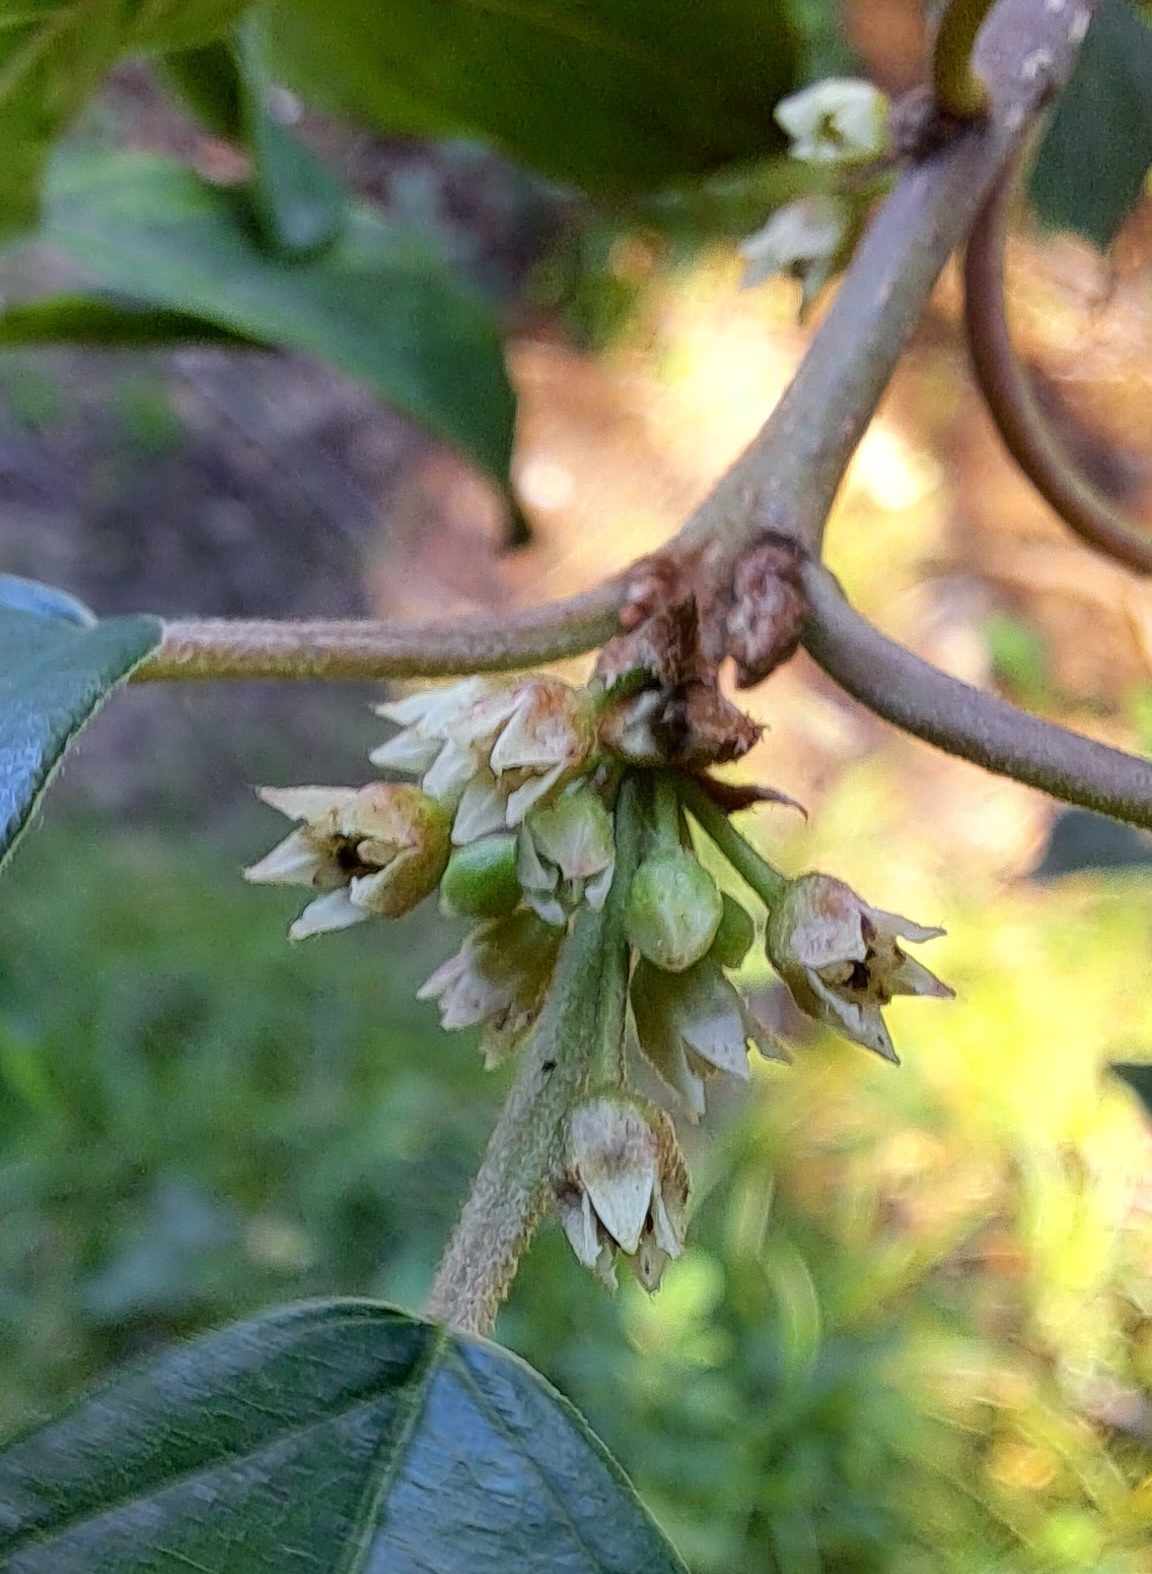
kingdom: Plantae
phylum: Tracheophyta
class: Magnoliopsida
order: Rosales
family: Rhamnaceae
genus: Frangula
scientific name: Frangula alnus
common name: Alder buckthorn
